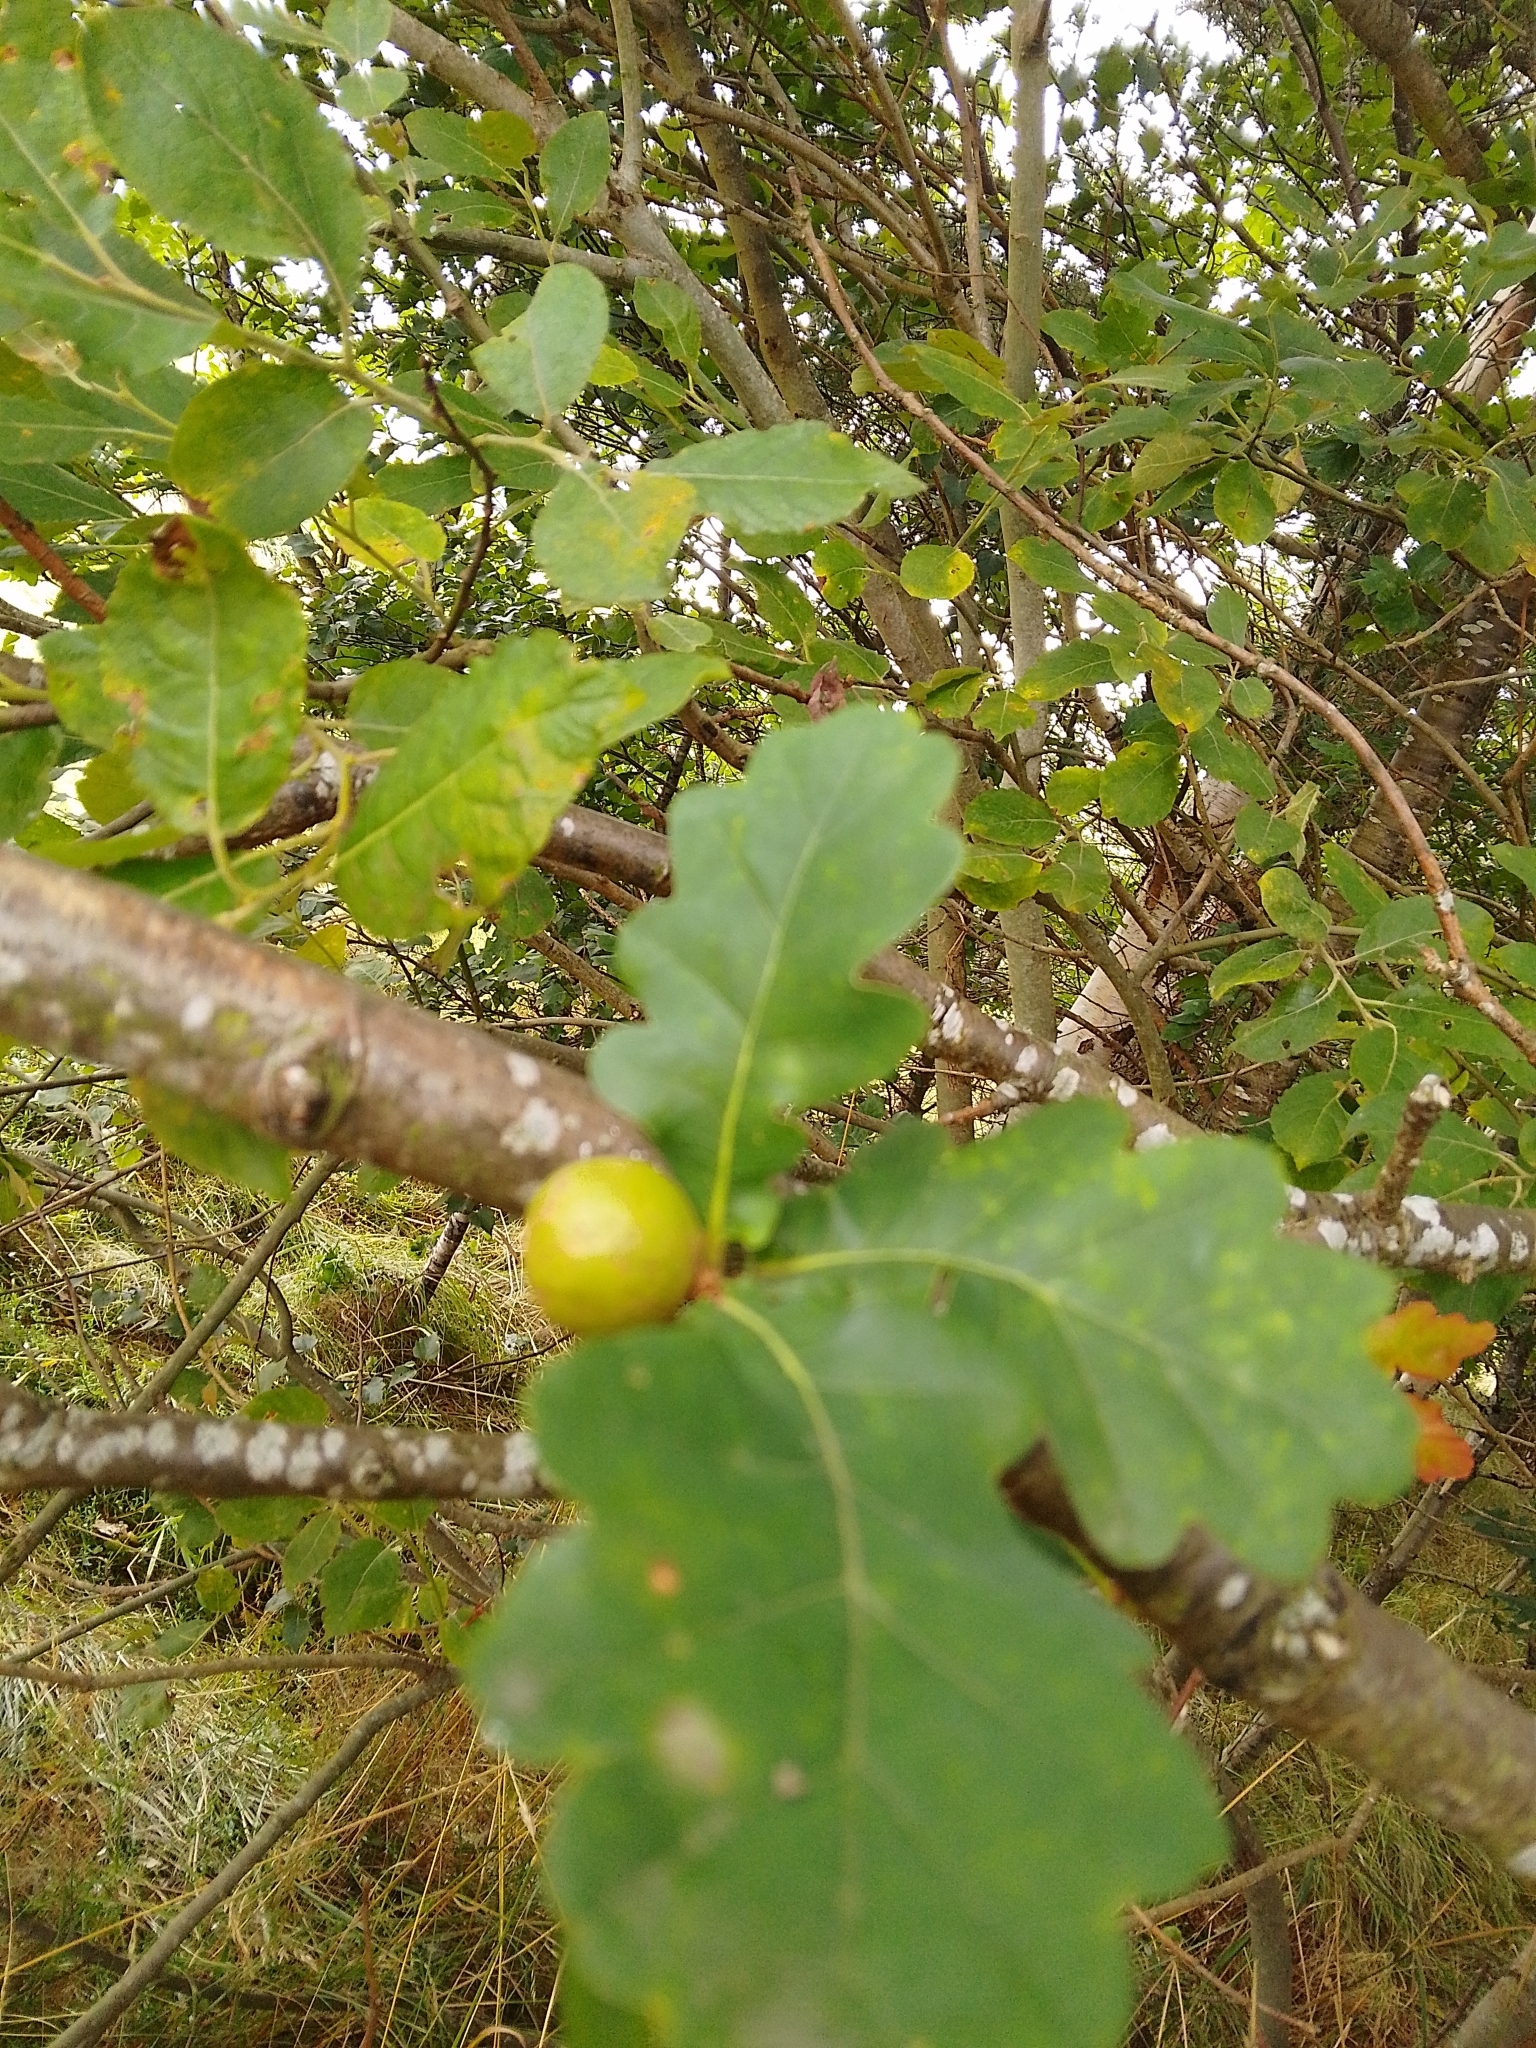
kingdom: Animalia
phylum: Arthropoda
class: Insecta
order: Hymenoptera
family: Cynipidae
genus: Andricus
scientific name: Andricus kollari
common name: Marble gall
